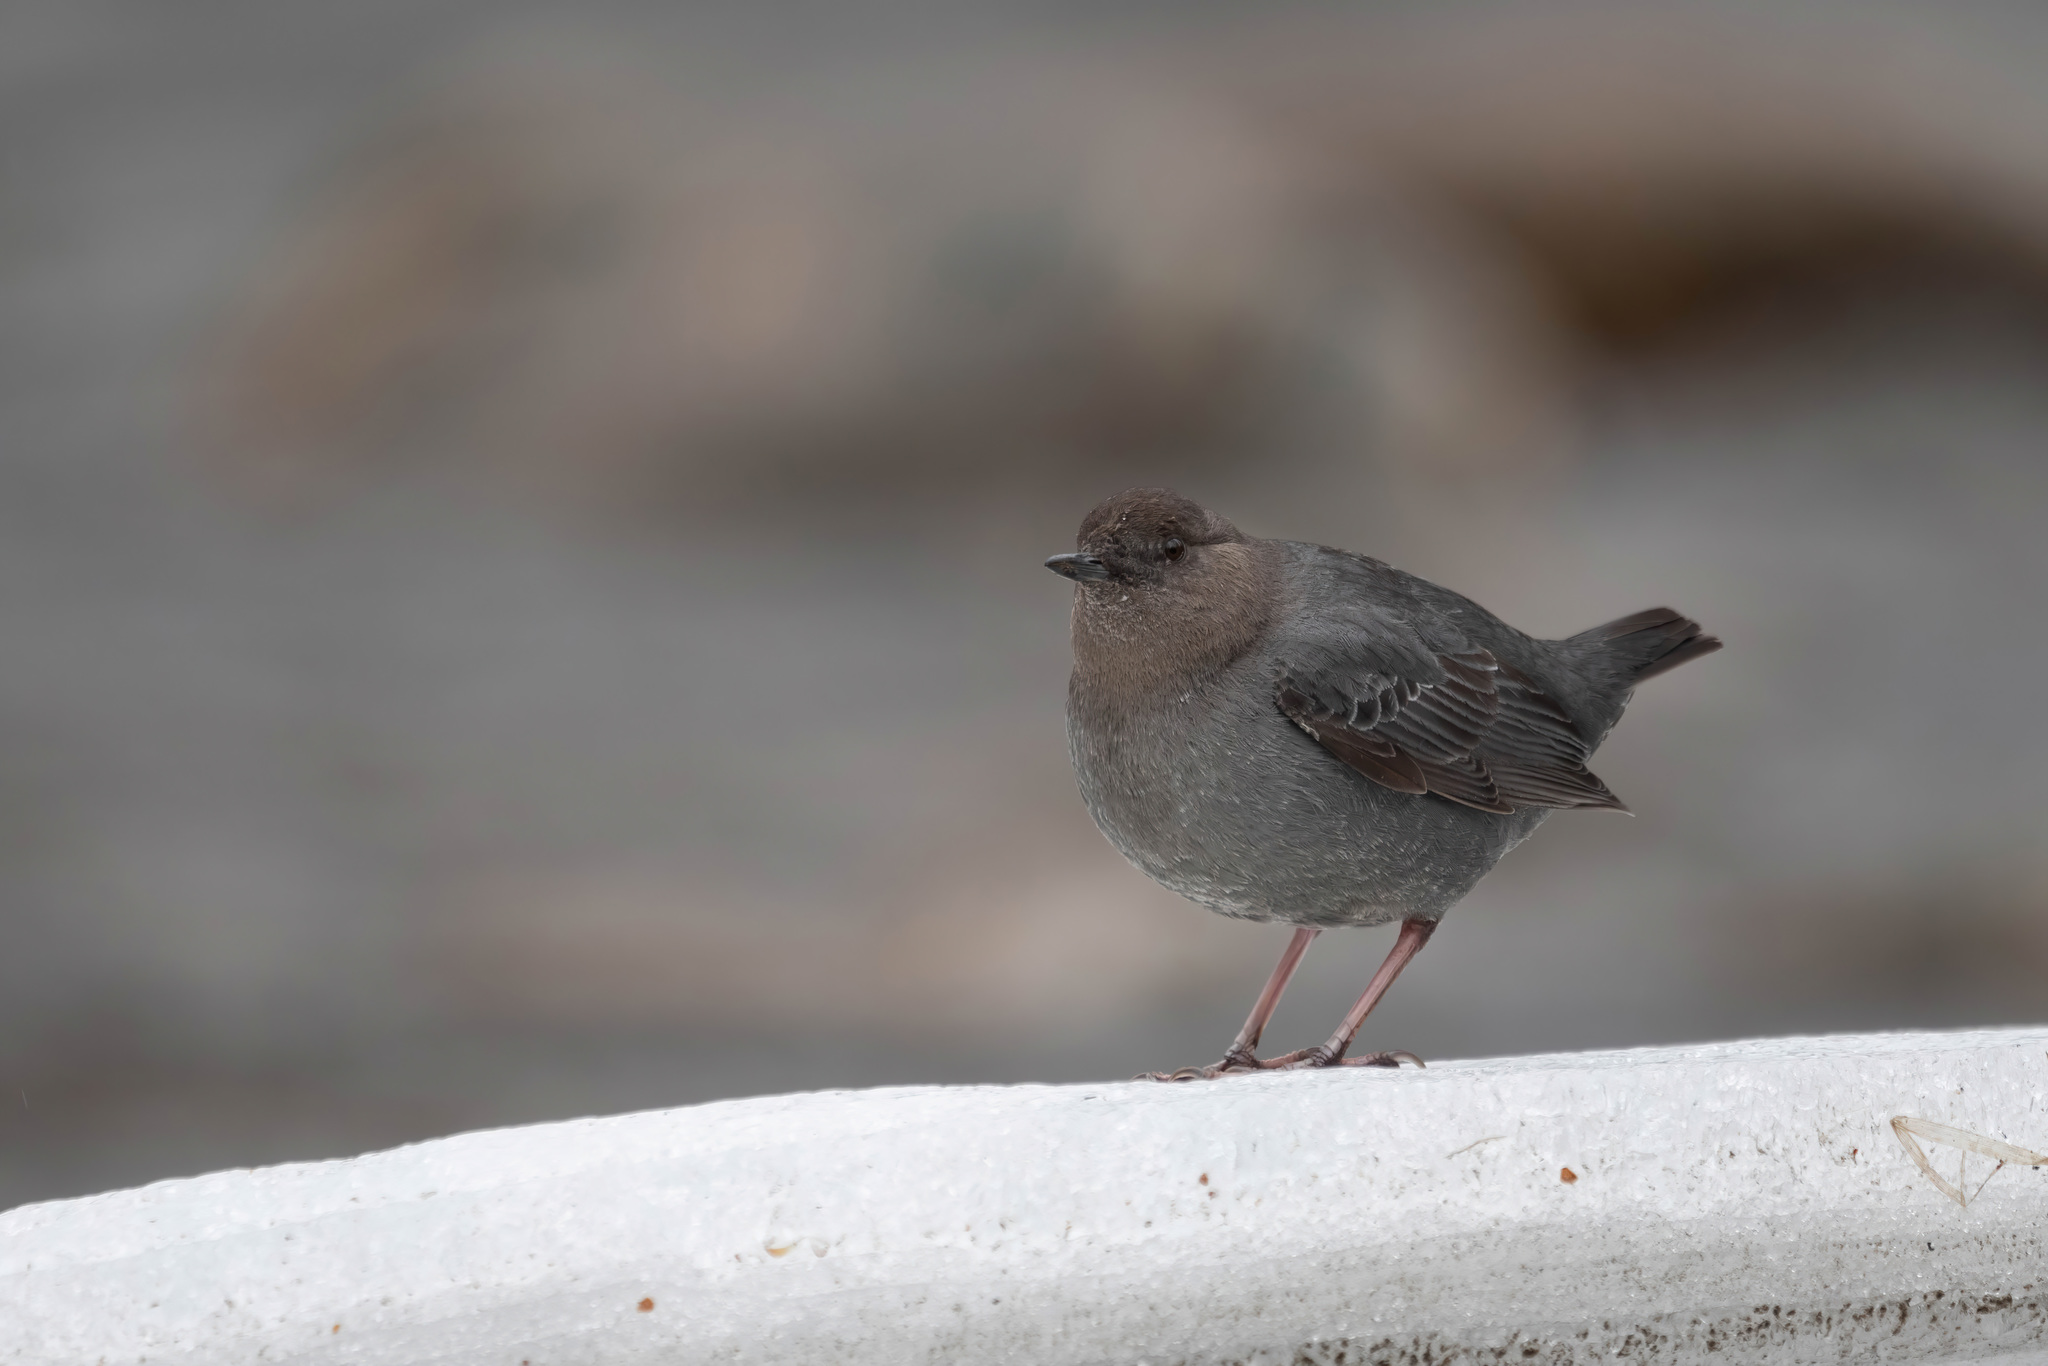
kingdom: Animalia
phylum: Chordata
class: Aves
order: Passeriformes
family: Cinclidae
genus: Cinclus
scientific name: Cinclus mexicanus
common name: American dipper
